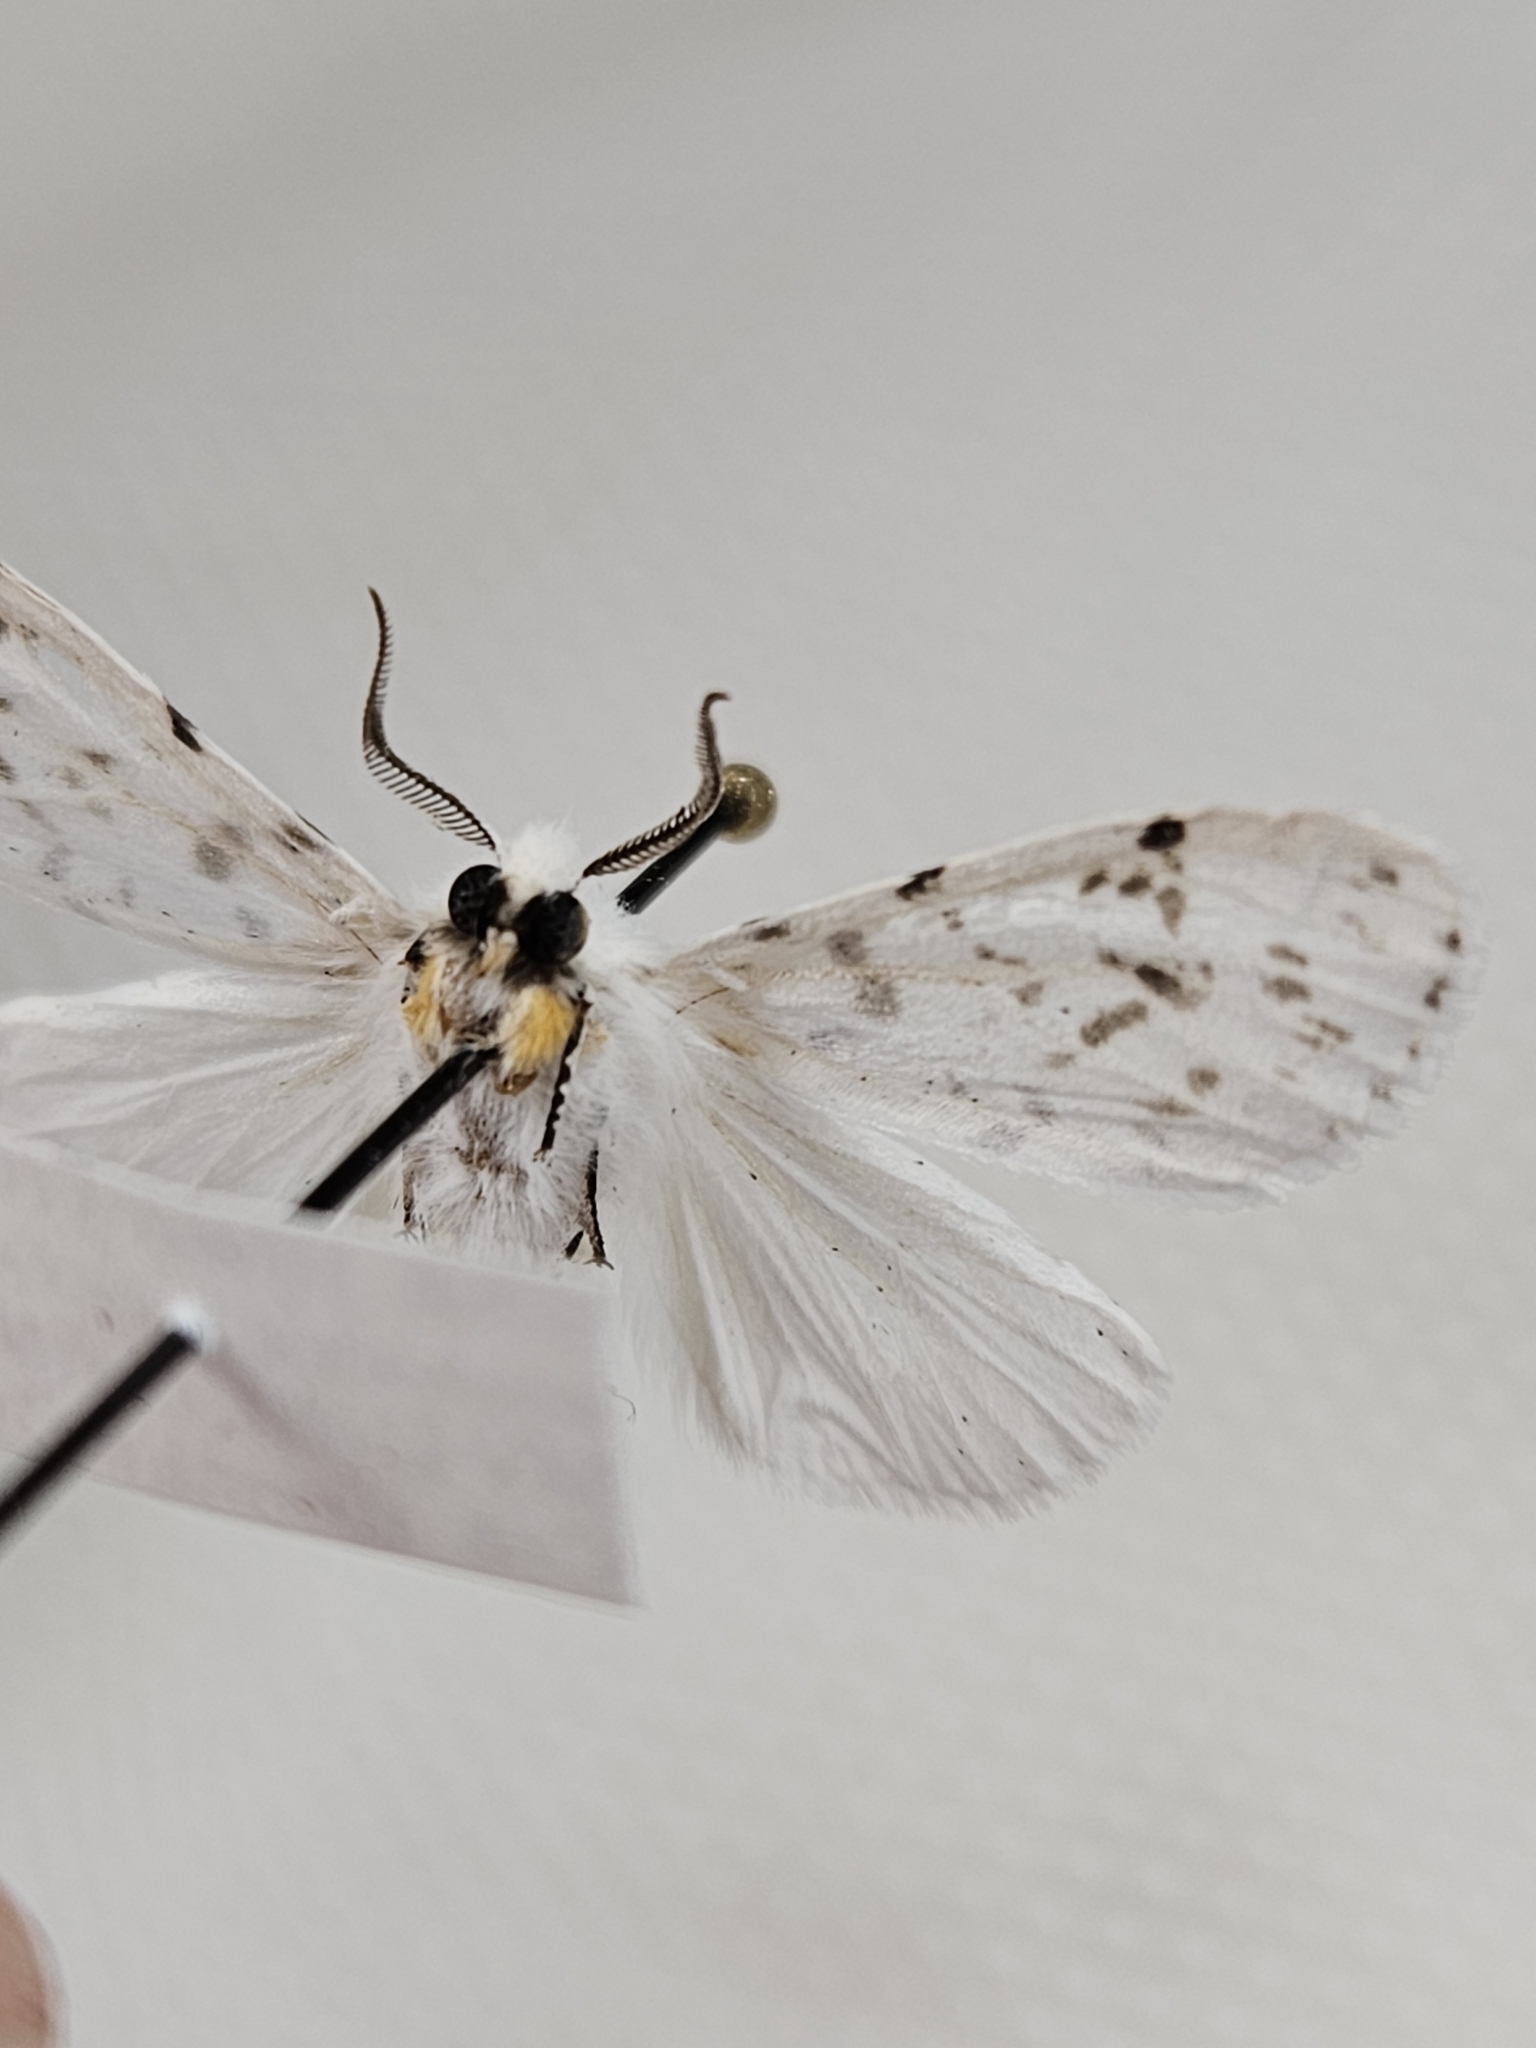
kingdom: Animalia
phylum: Arthropoda
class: Insecta
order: Lepidoptera
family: Erebidae
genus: Hyphantria
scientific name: Hyphantria cunea
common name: American white moth
